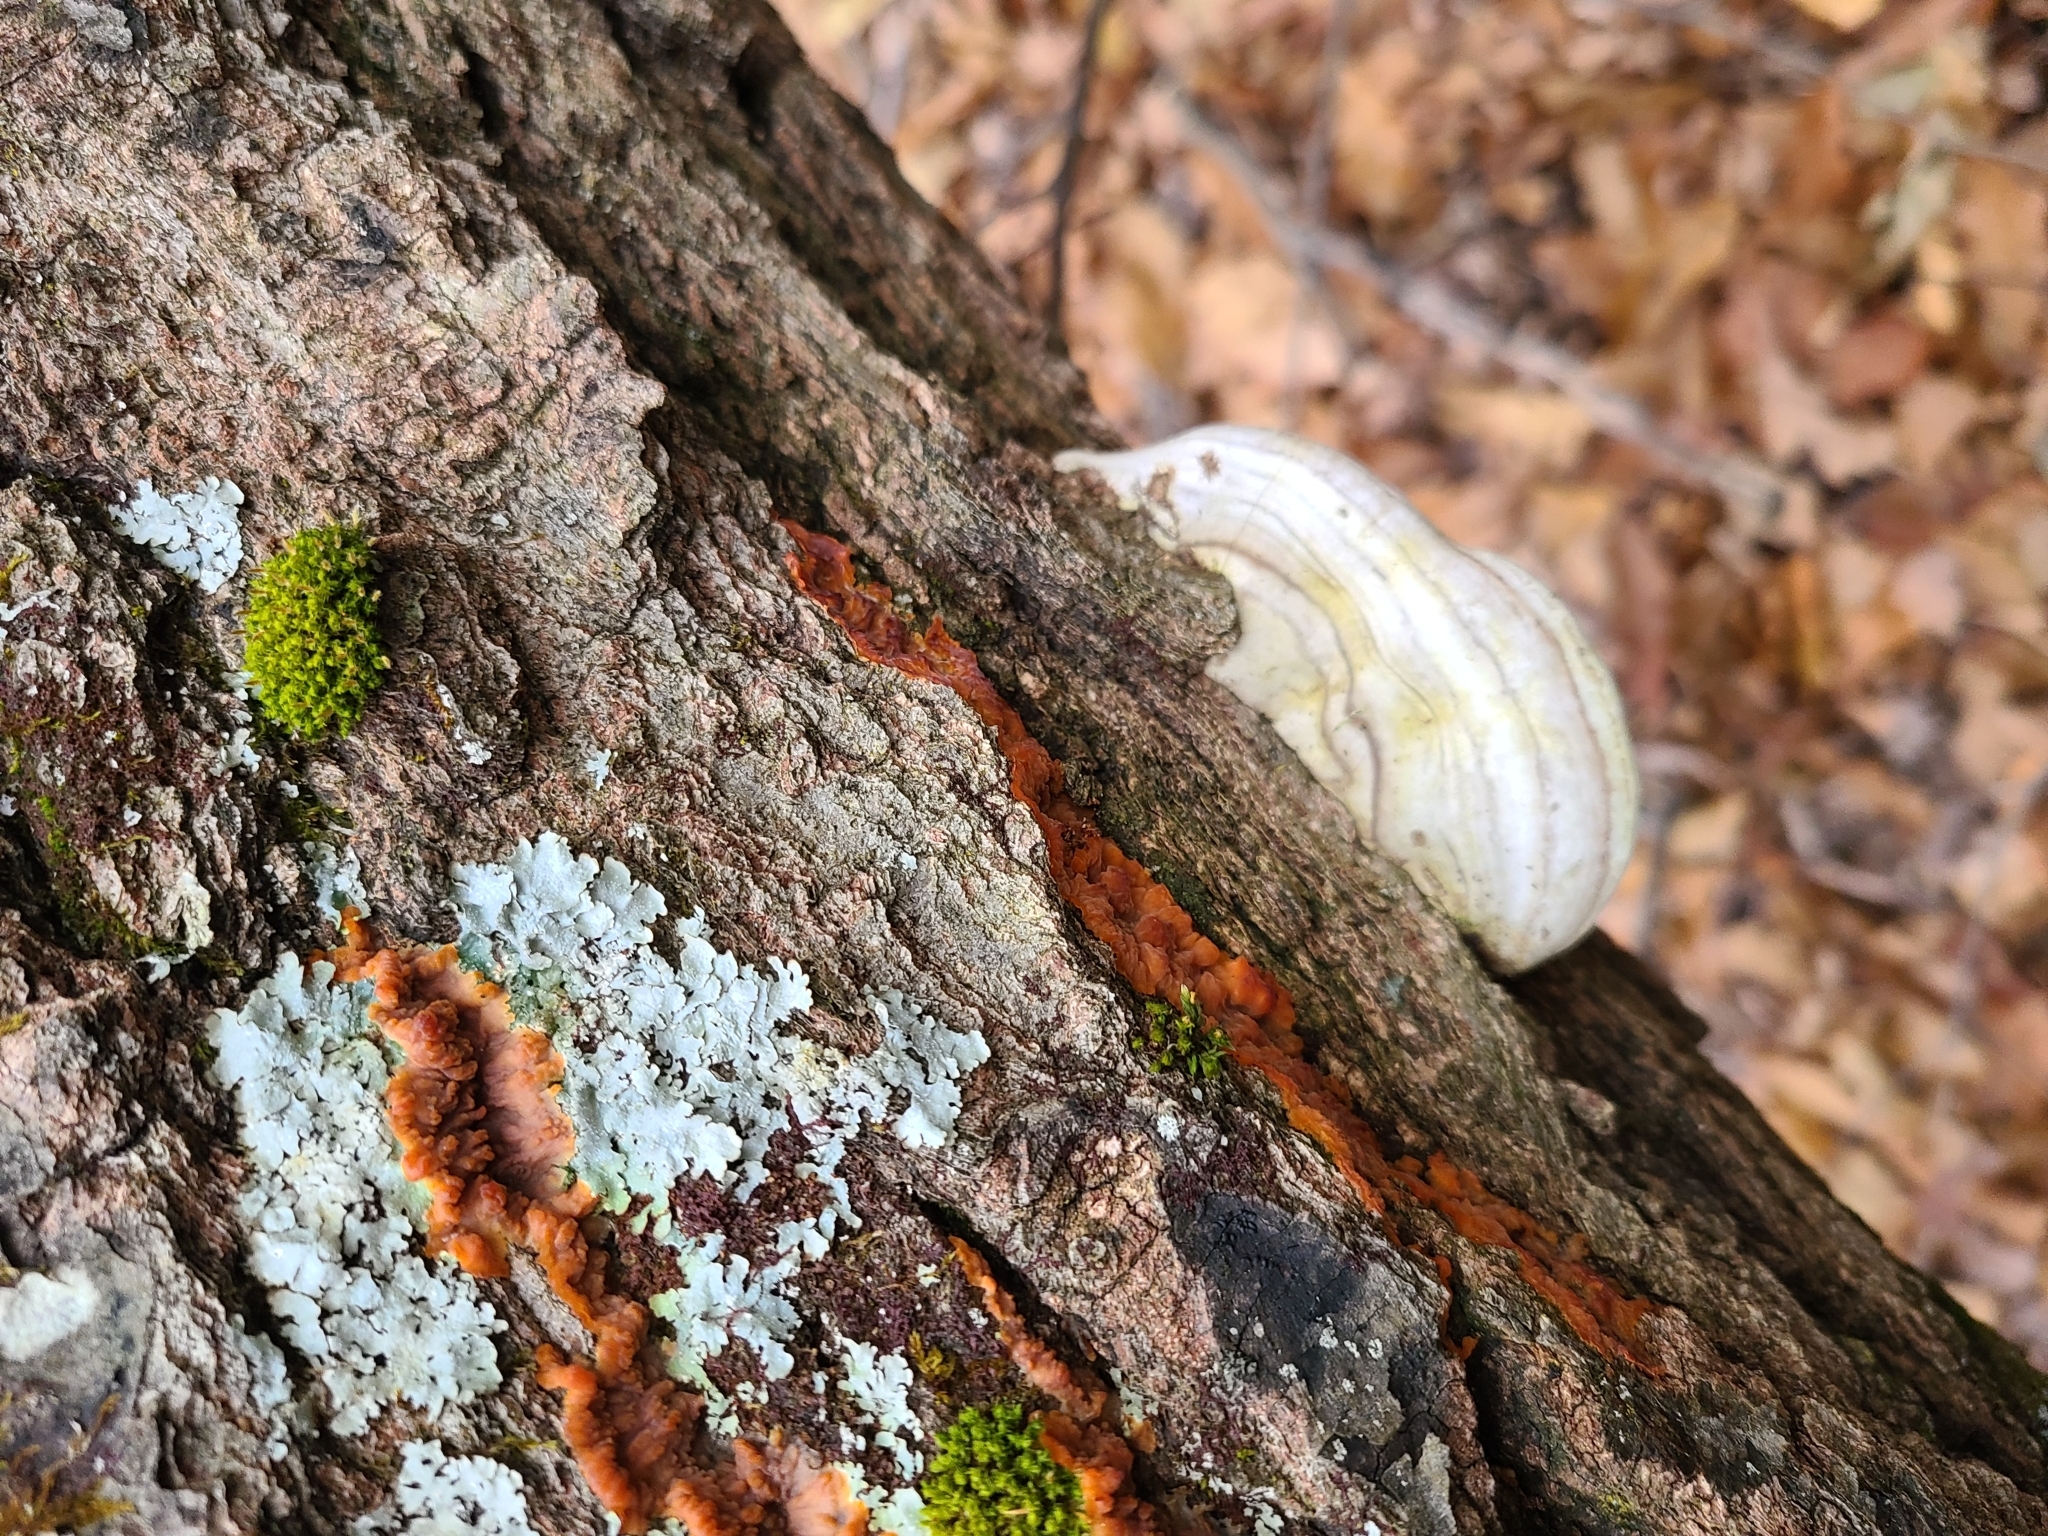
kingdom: Fungi
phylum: Basidiomycota
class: Agaricomycetes
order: Polyporales
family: Polyporaceae
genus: Ganoderma
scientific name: Ganoderma applanatum
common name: Artist's bracket
